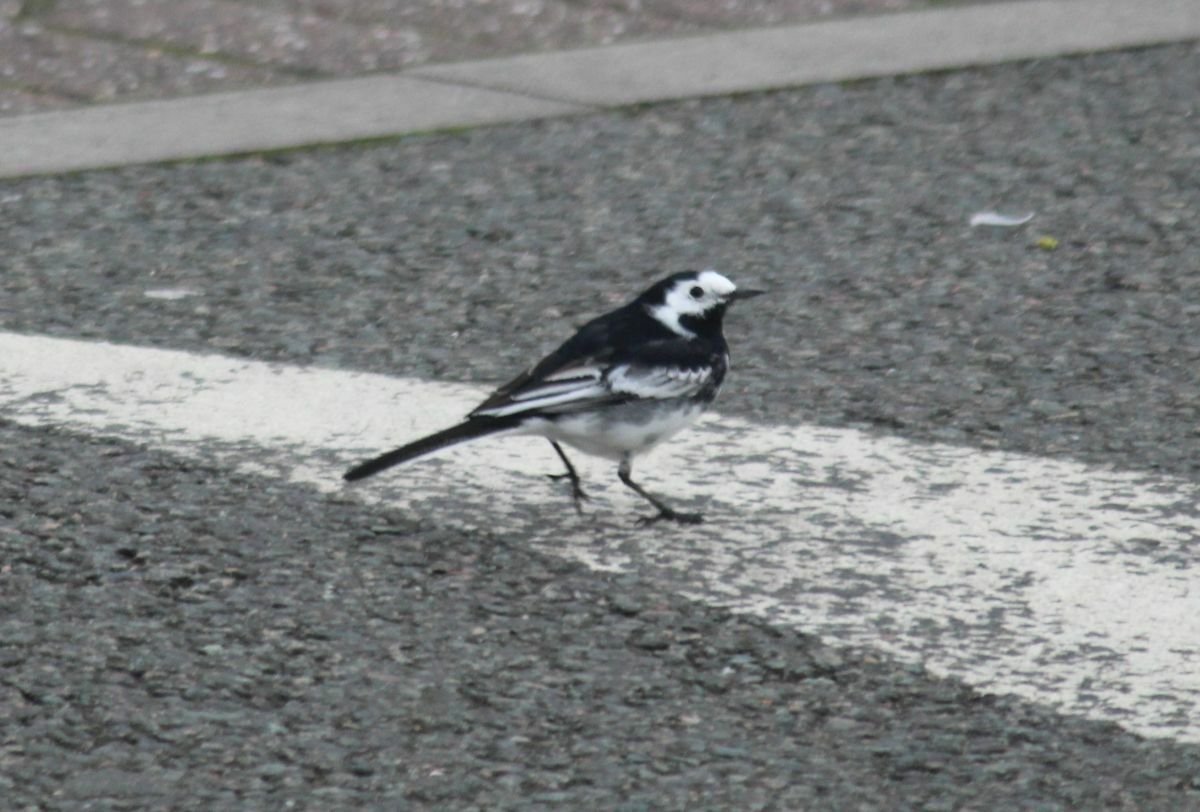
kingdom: Animalia
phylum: Chordata
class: Aves
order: Passeriformes
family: Motacillidae
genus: Motacilla
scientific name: Motacilla alba
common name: White wagtail
